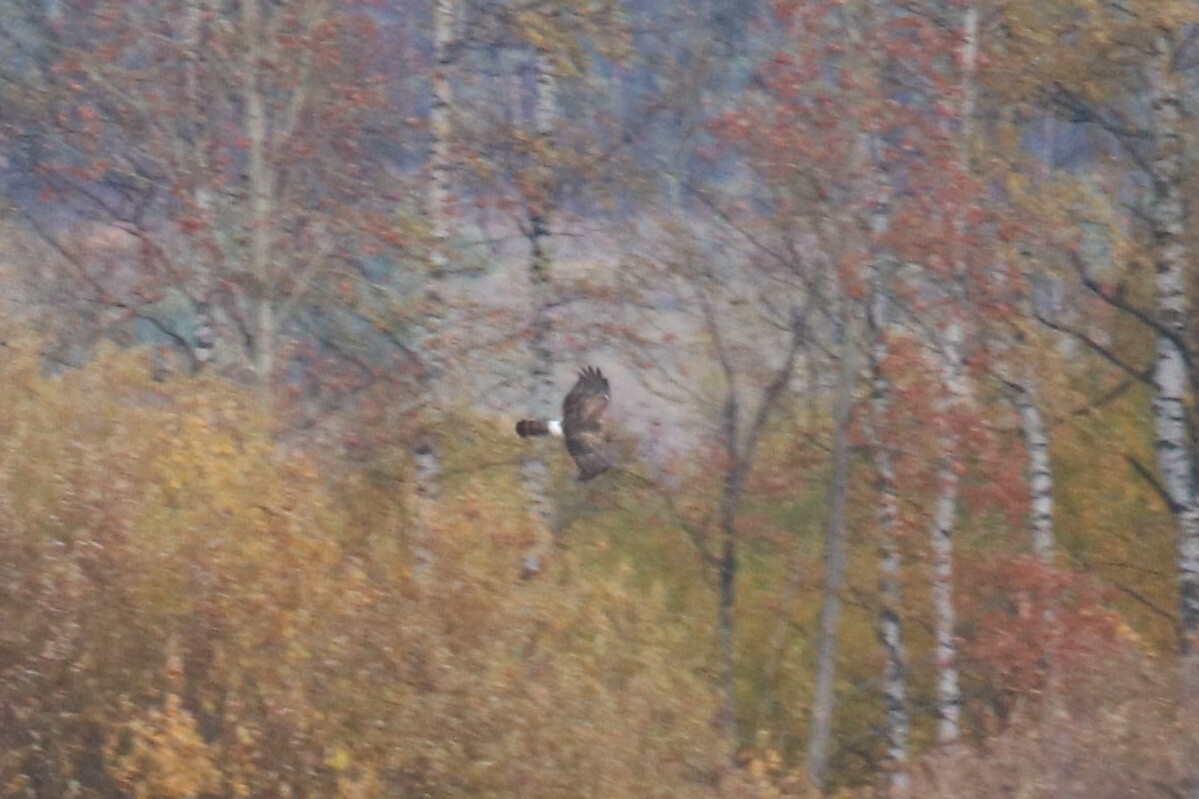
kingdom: Animalia
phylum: Chordata
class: Aves
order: Accipitriformes
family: Accipitridae
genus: Circus
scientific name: Circus cyaneus
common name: Hen harrier
